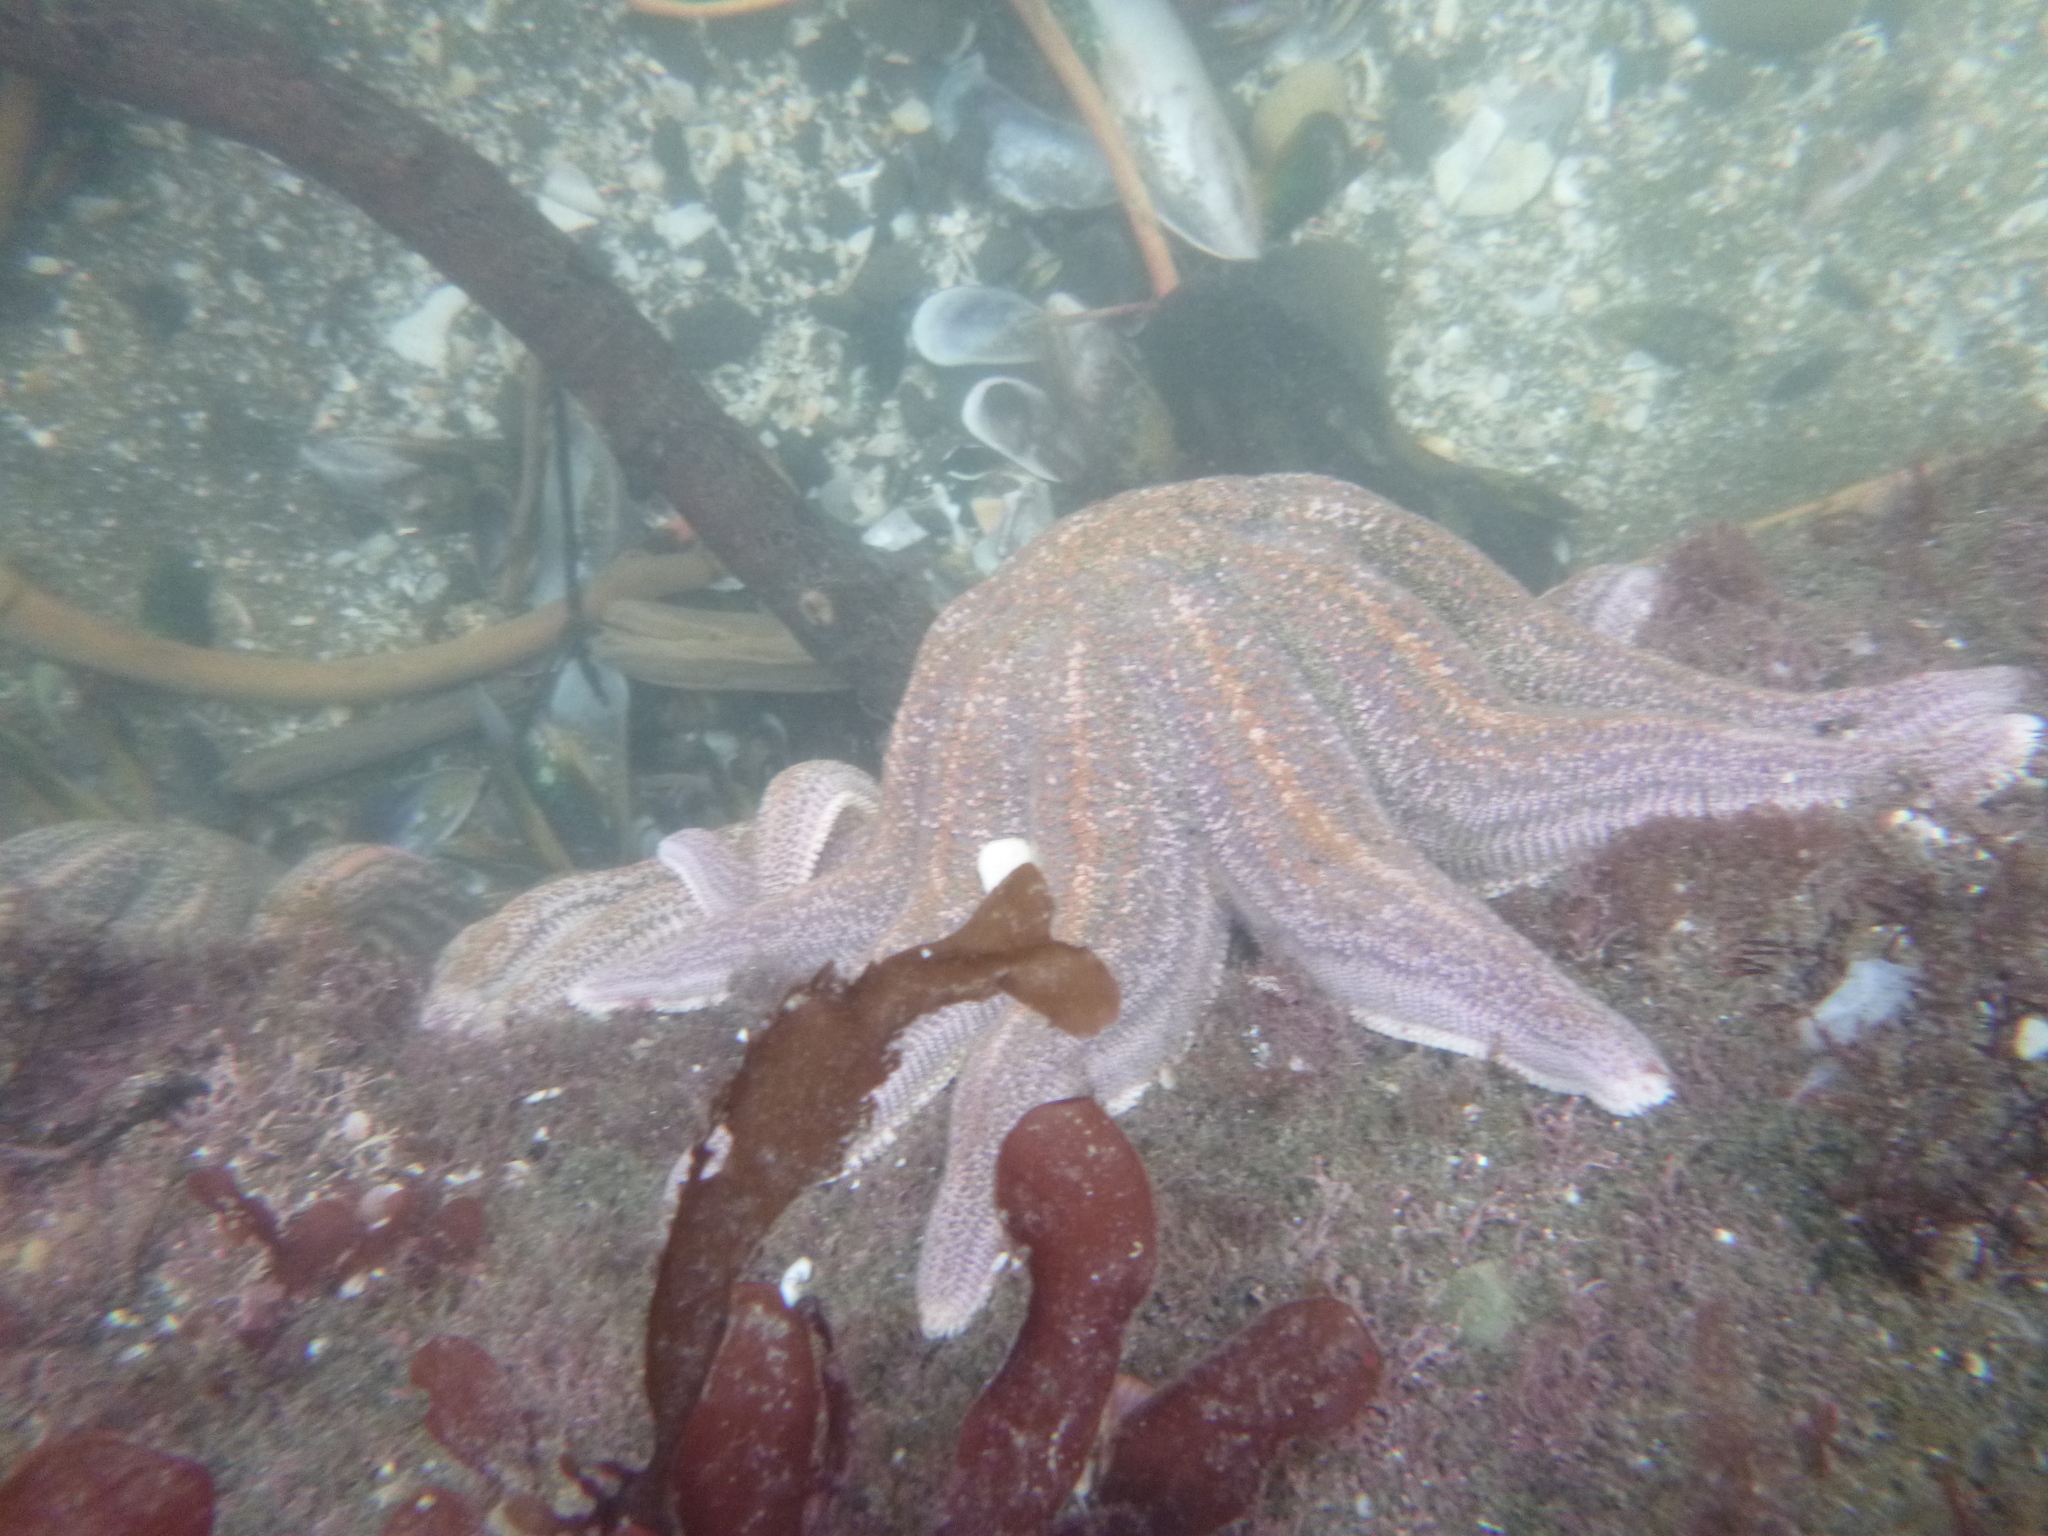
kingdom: Animalia
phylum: Echinodermata
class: Asteroidea
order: Forcipulatida
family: Stichasteridae
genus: Stichaster
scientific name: Stichaster australis
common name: Reef starfish
